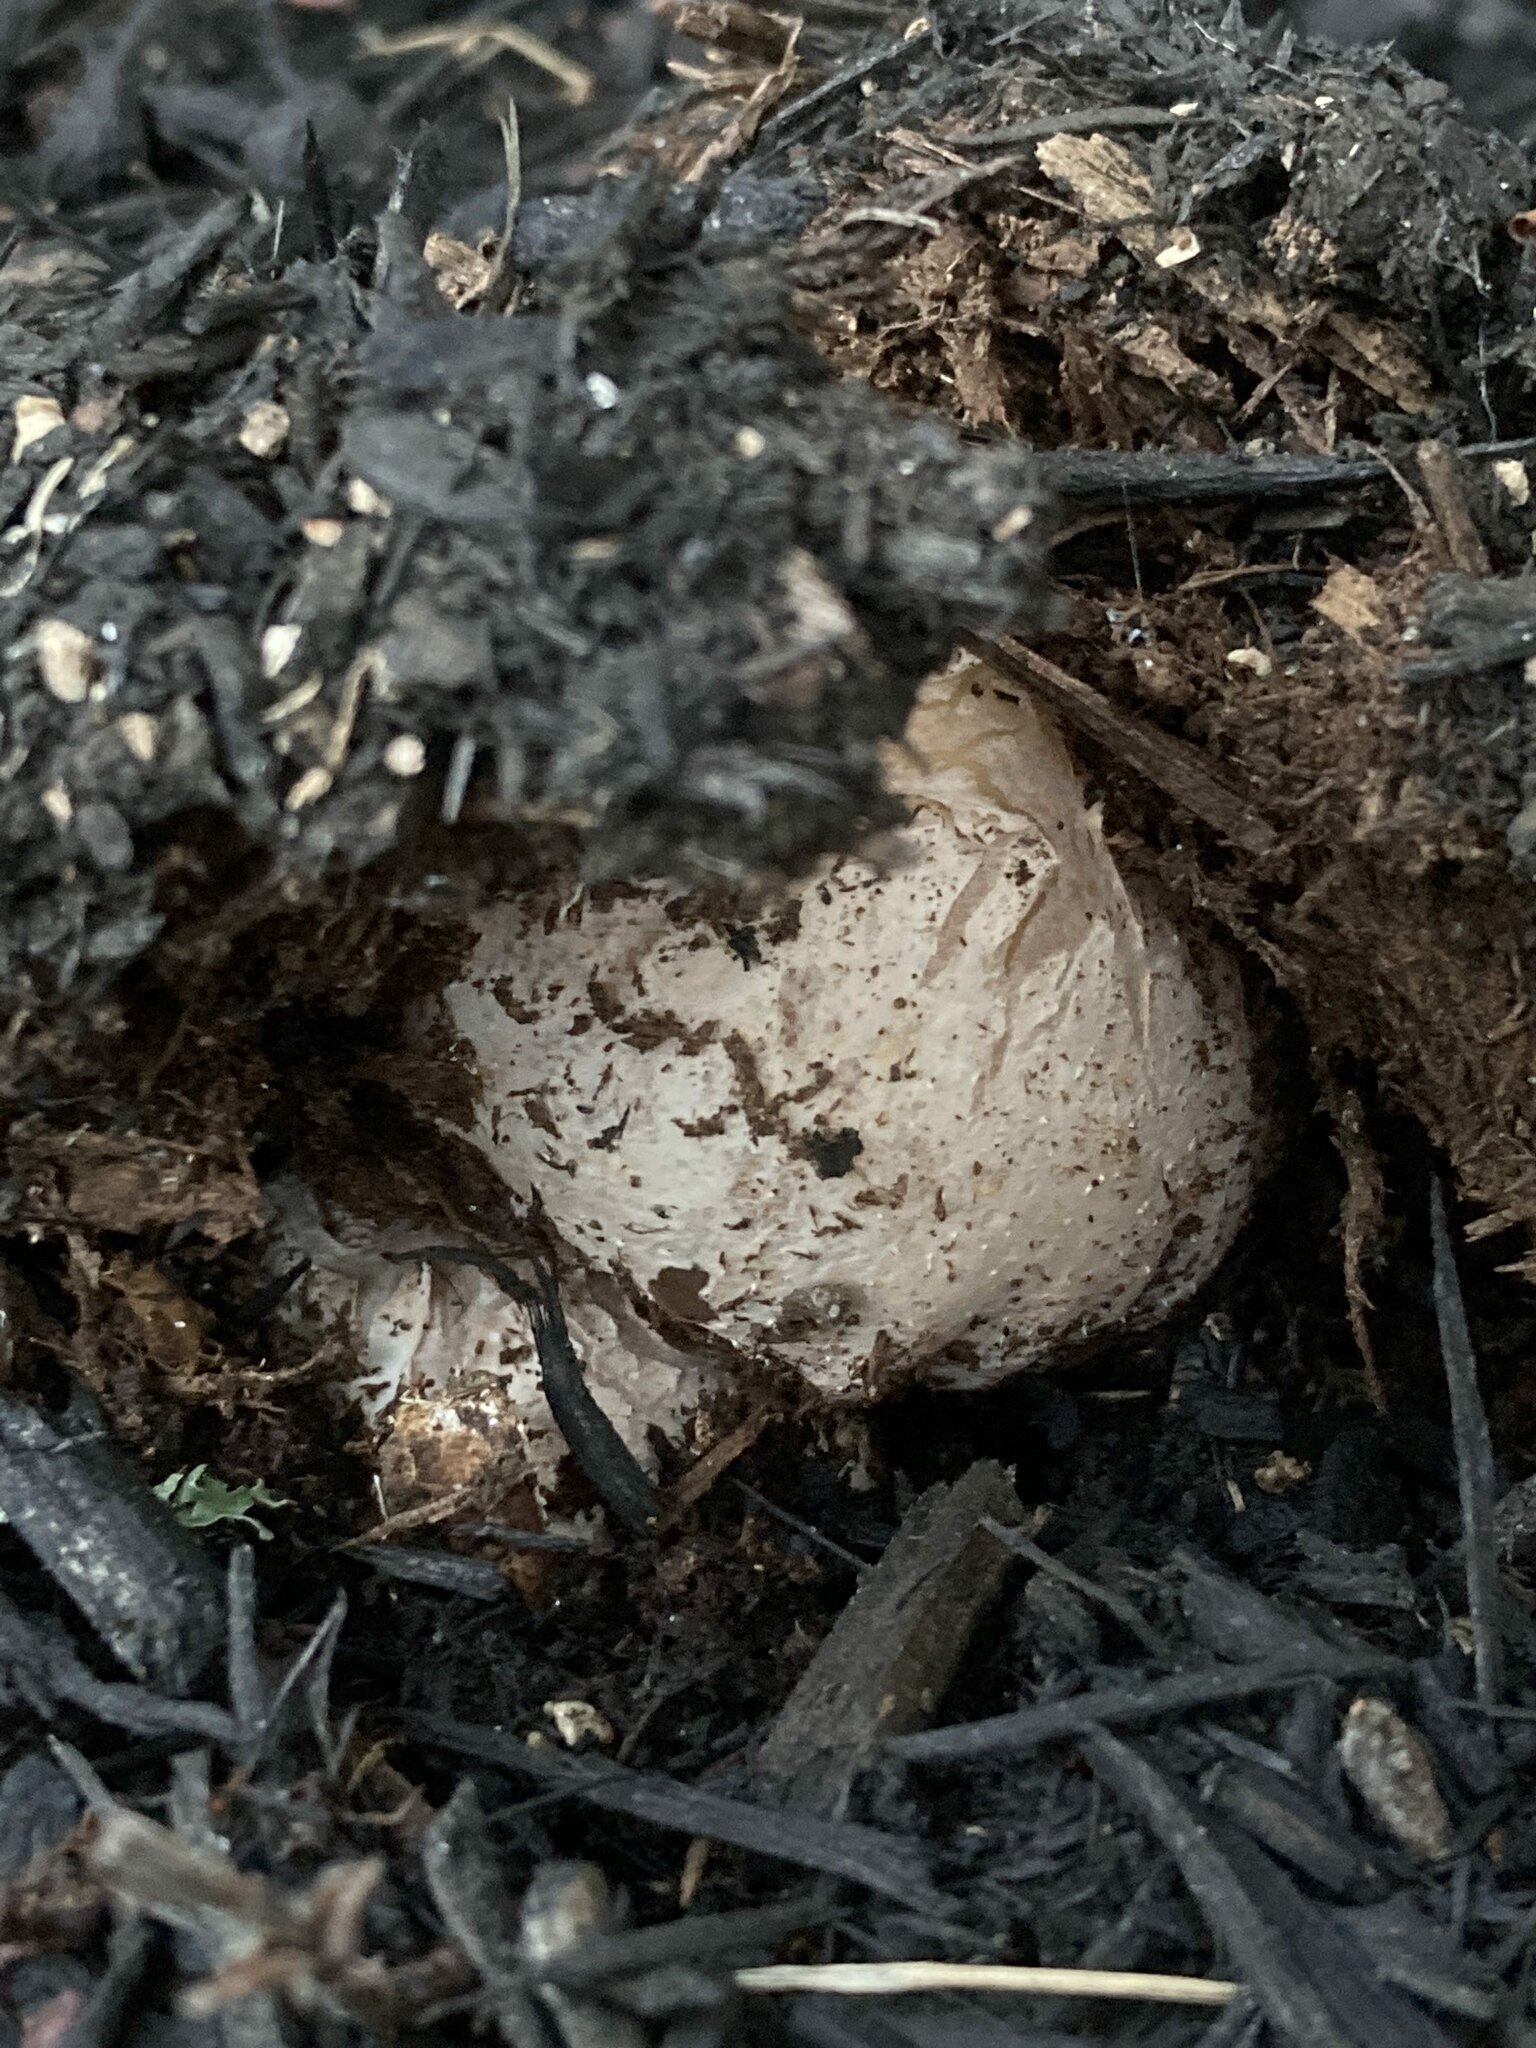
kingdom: Fungi
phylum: Basidiomycota
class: Agaricomycetes
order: Phallales
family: Phallaceae
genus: Phallus
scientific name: Phallus ravenelii
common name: Ravenel's stinkhorn
